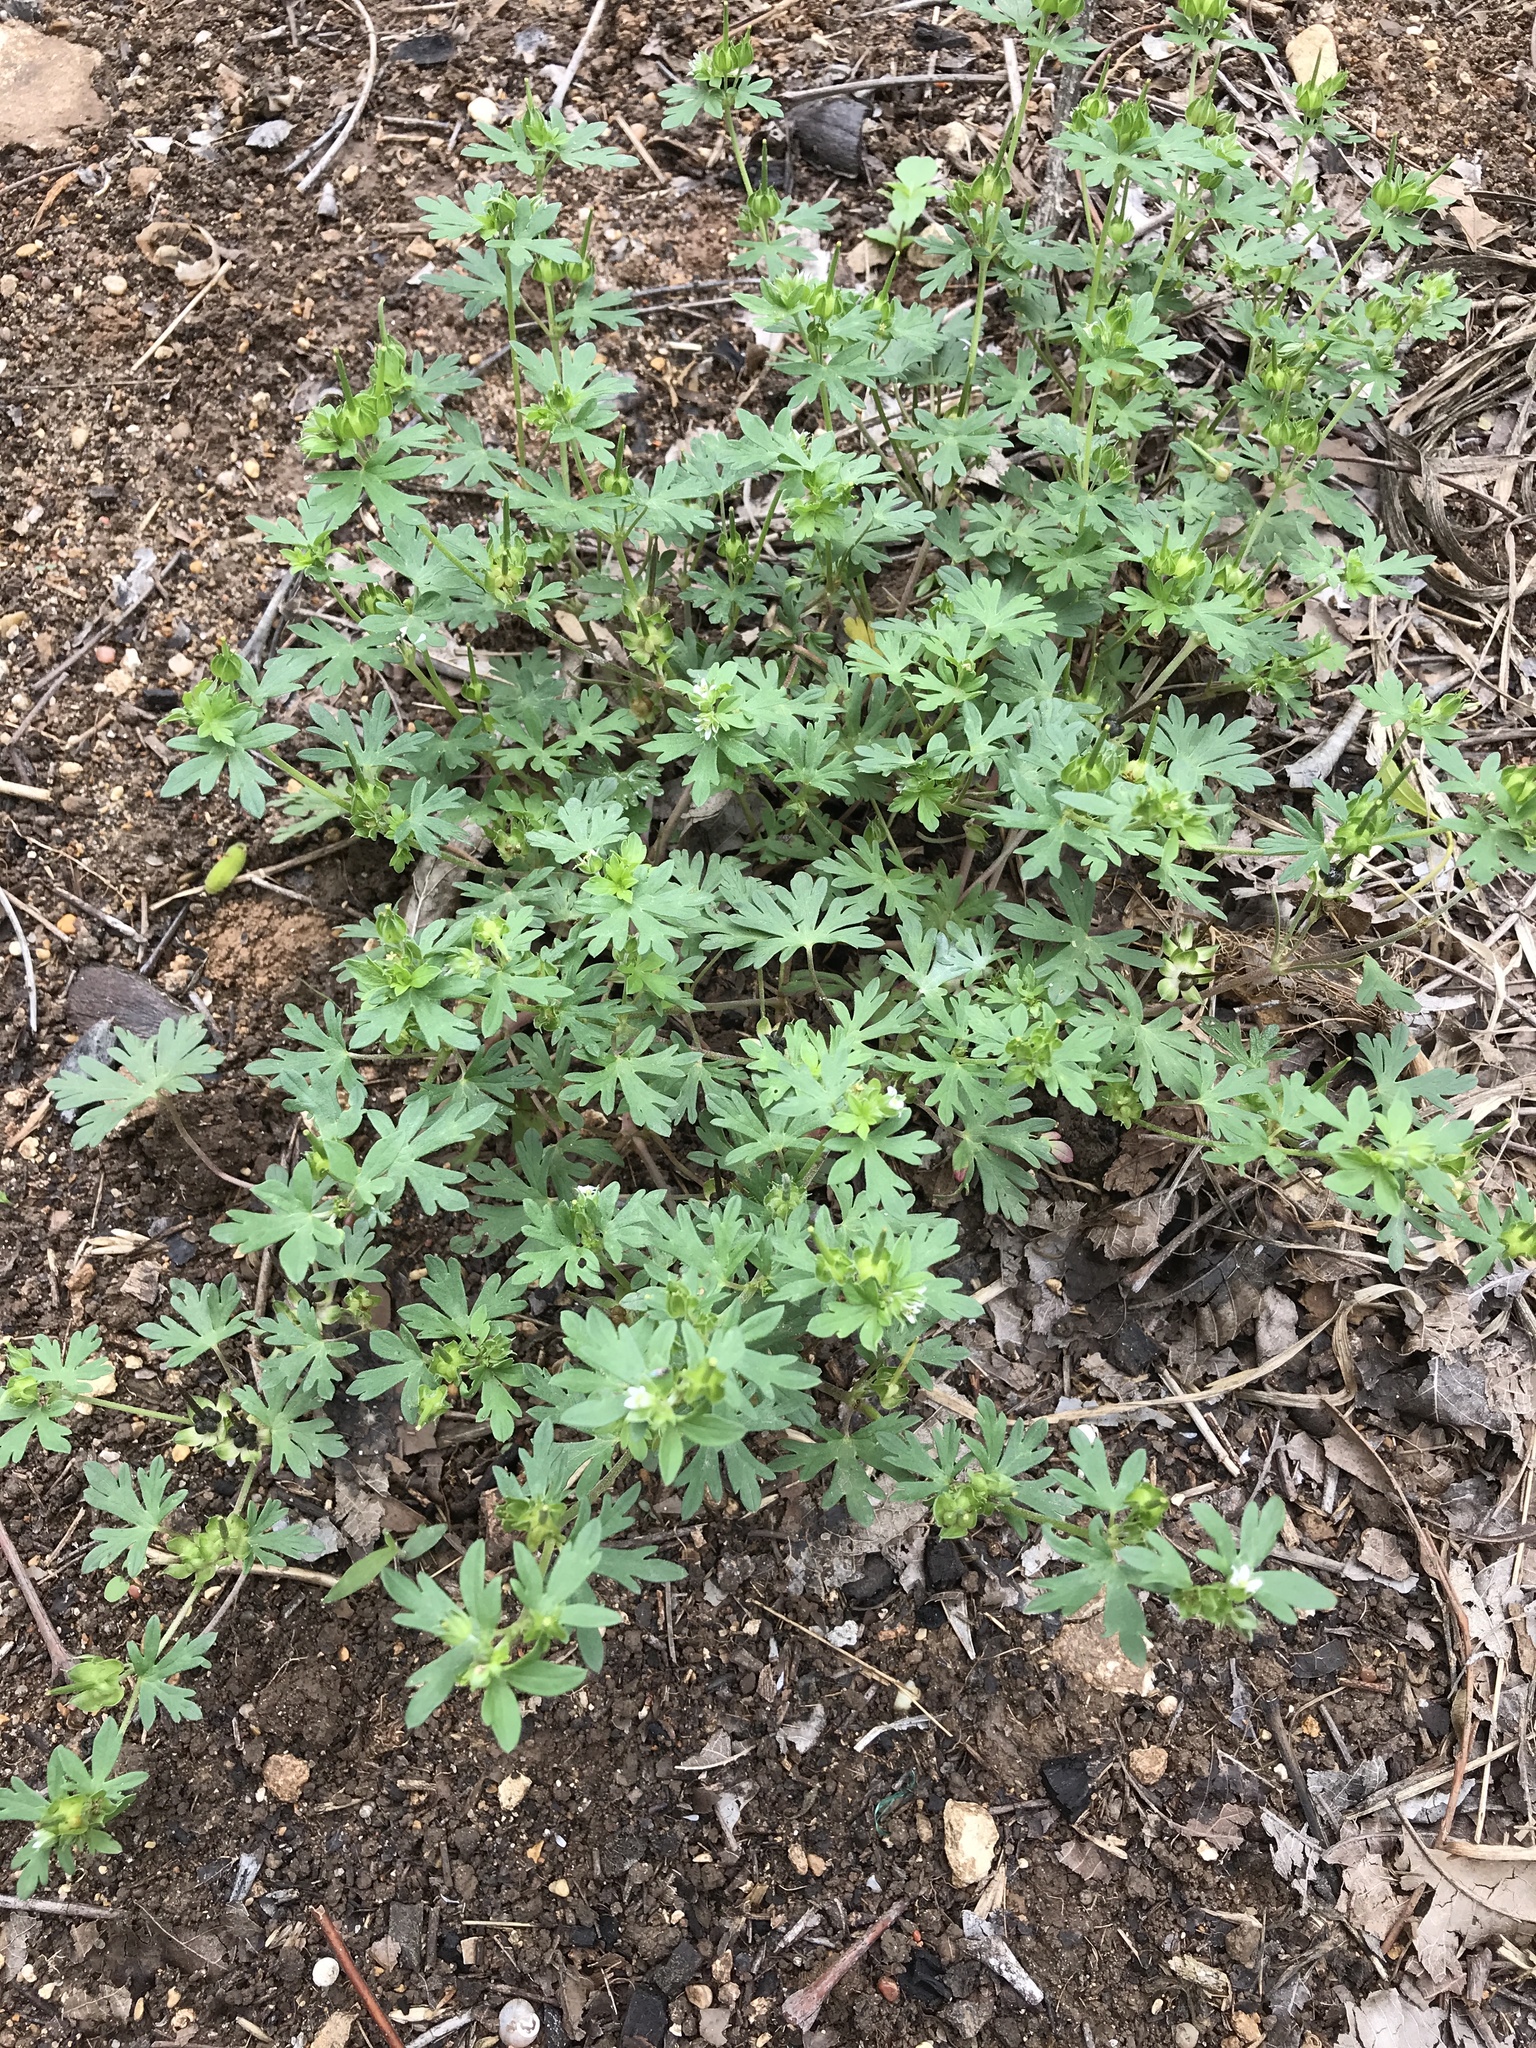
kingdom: Plantae
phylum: Tracheophyta
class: Magnoliopsida
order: Geraniales
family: Geraniaceae
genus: Geranium
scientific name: Geranium texanum
